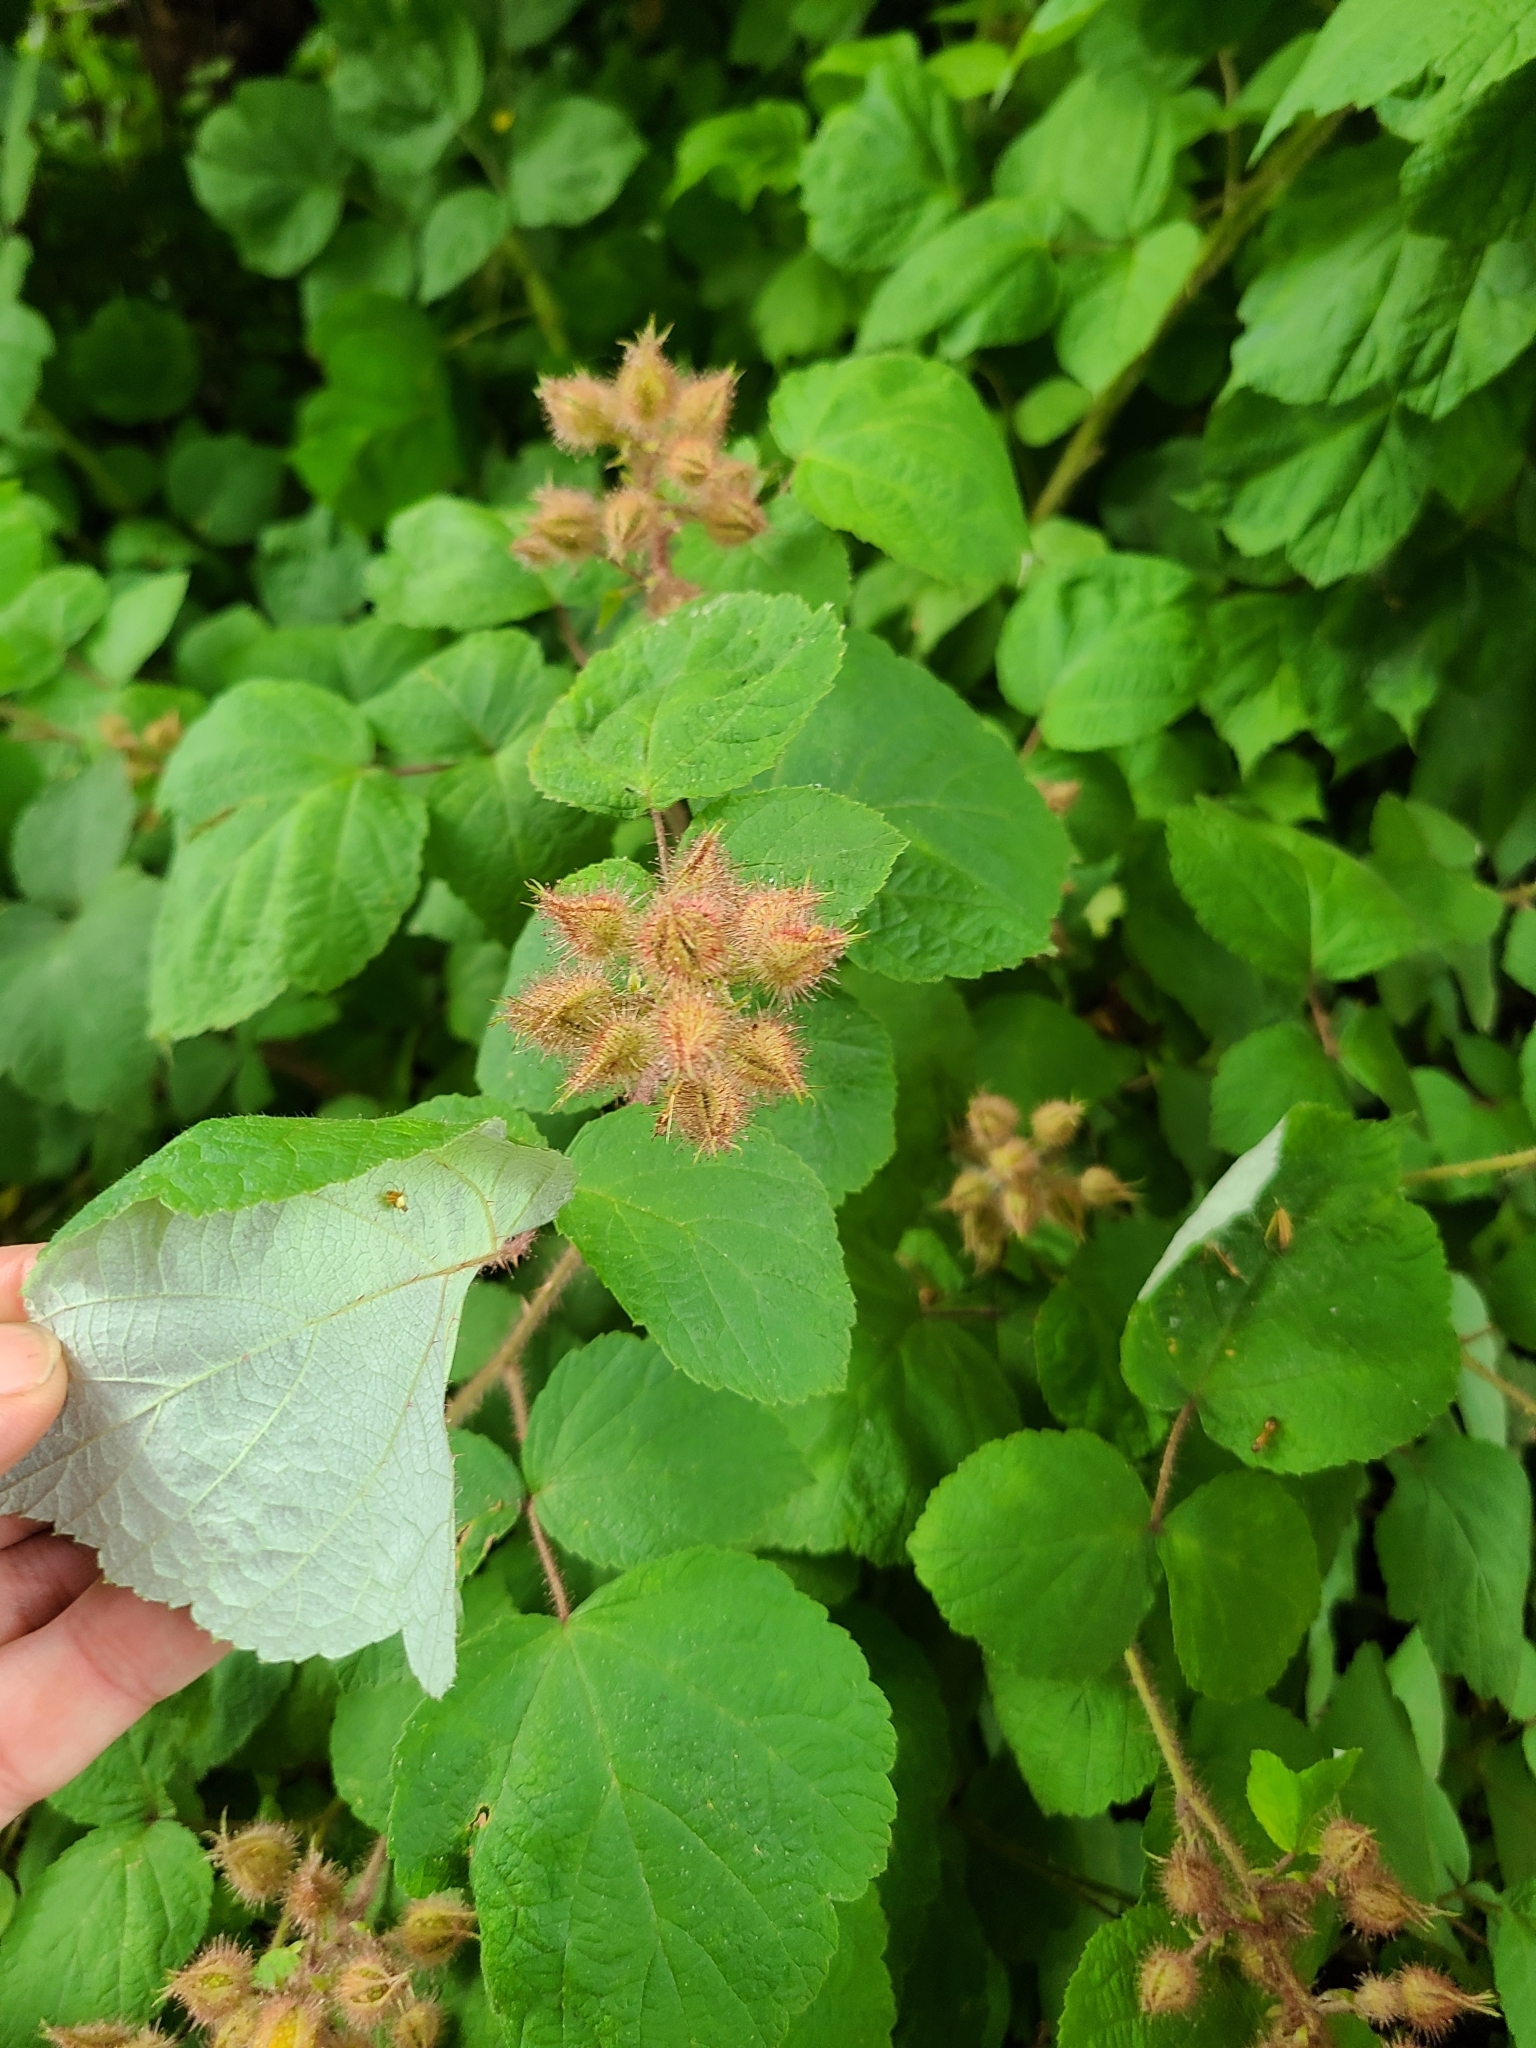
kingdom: Plantae
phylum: Tracheophyta
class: Magnoliopsida
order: Rosales
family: Rosaceae
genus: Rubus
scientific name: Rubus phoenicolasius
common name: Japanese wineberry
